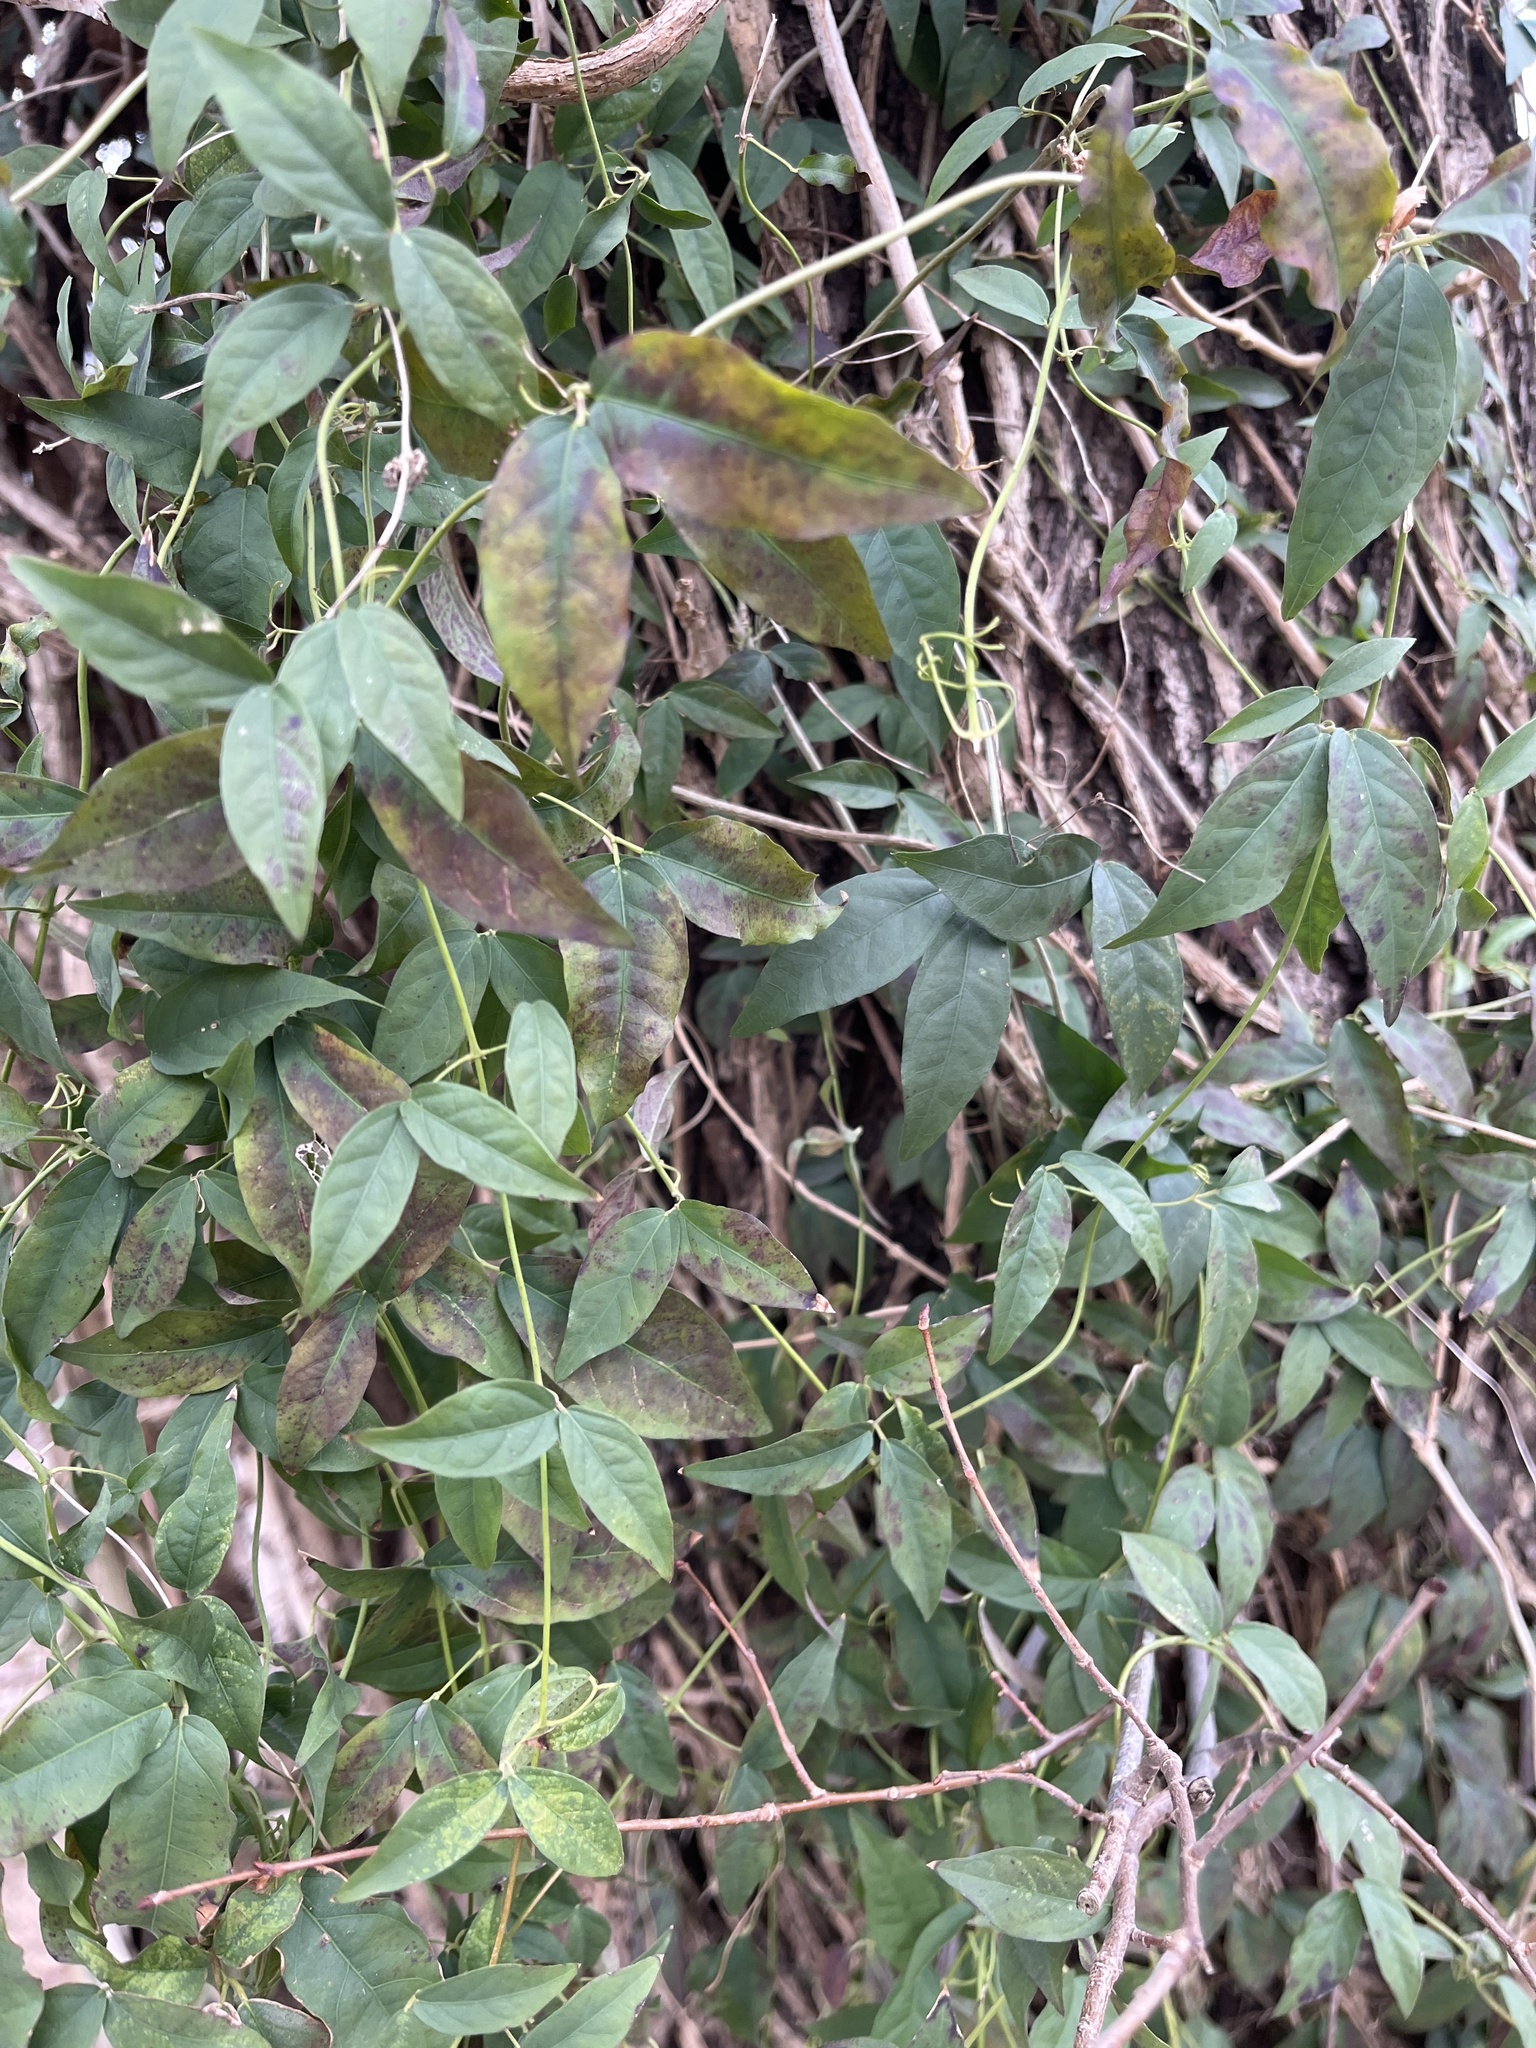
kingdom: Plantae
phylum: Tracheophyta
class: Magnoliopsida
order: Lamiales
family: Bignoniaceae
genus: Dolichandra
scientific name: Dolichandra unguis-cati
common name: Catclaw vine
